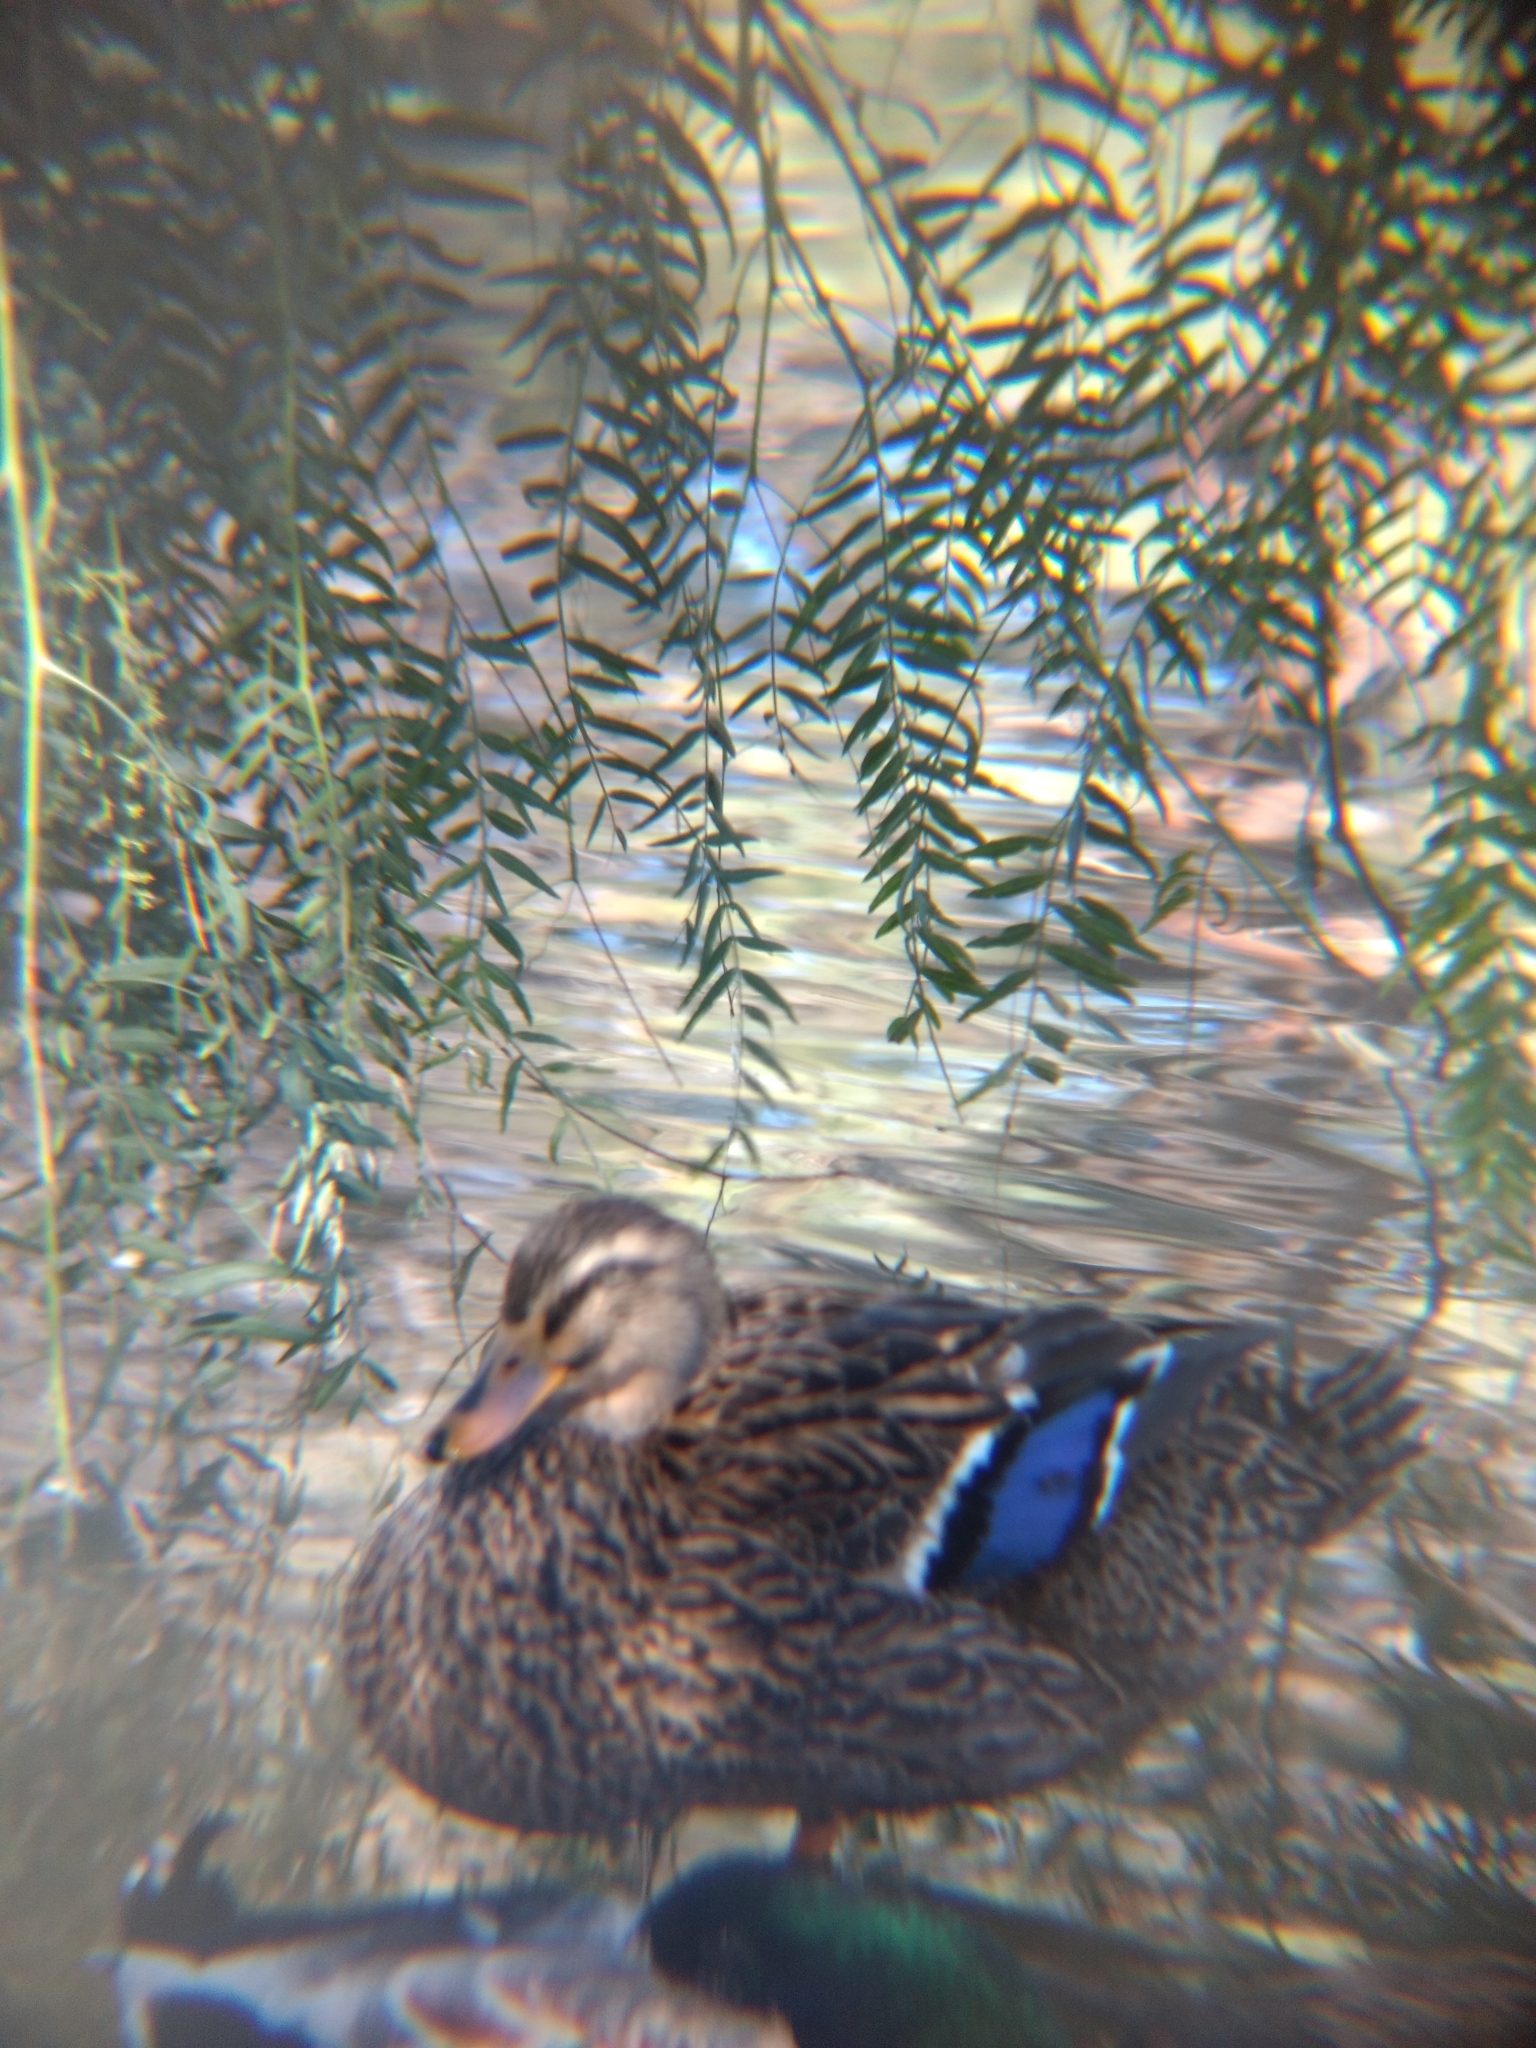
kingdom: Animalia
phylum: Chordata
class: Aves
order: Anseriformes
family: Anatidae
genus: Anas
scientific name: Anas platyrhynchos
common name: Mallard
